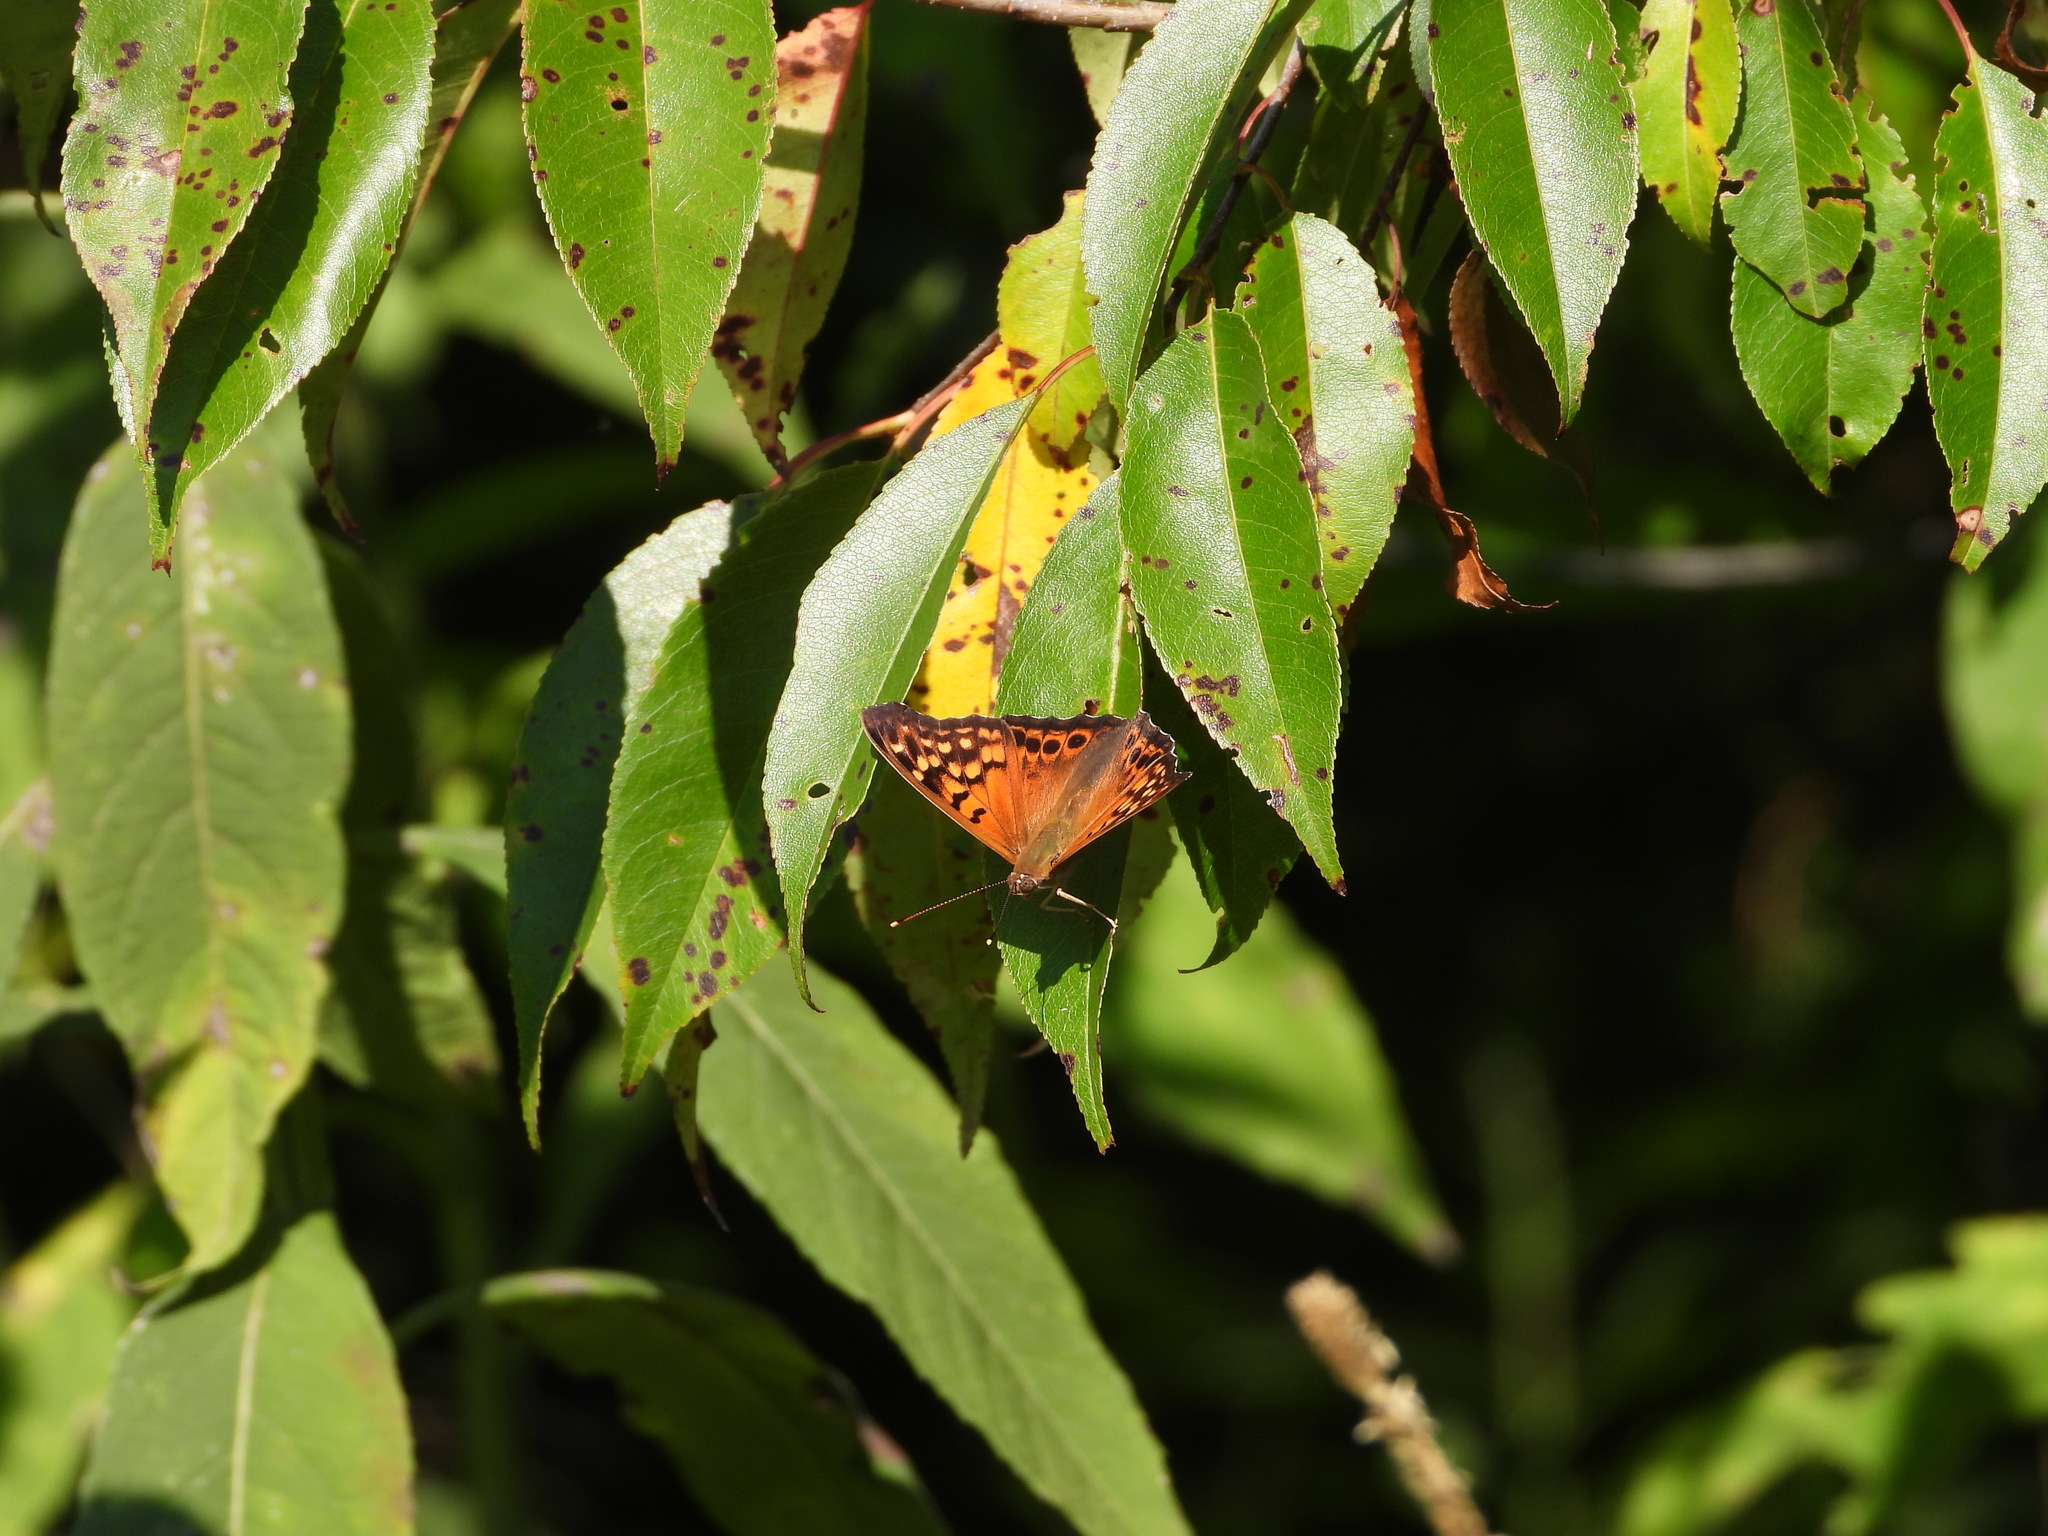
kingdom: Animalia
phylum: Arthropoda
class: Insecta
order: Lepidoptera
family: Nymphalidae
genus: Asterocampa
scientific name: Asterocampa clyton
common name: Tawny emperor
